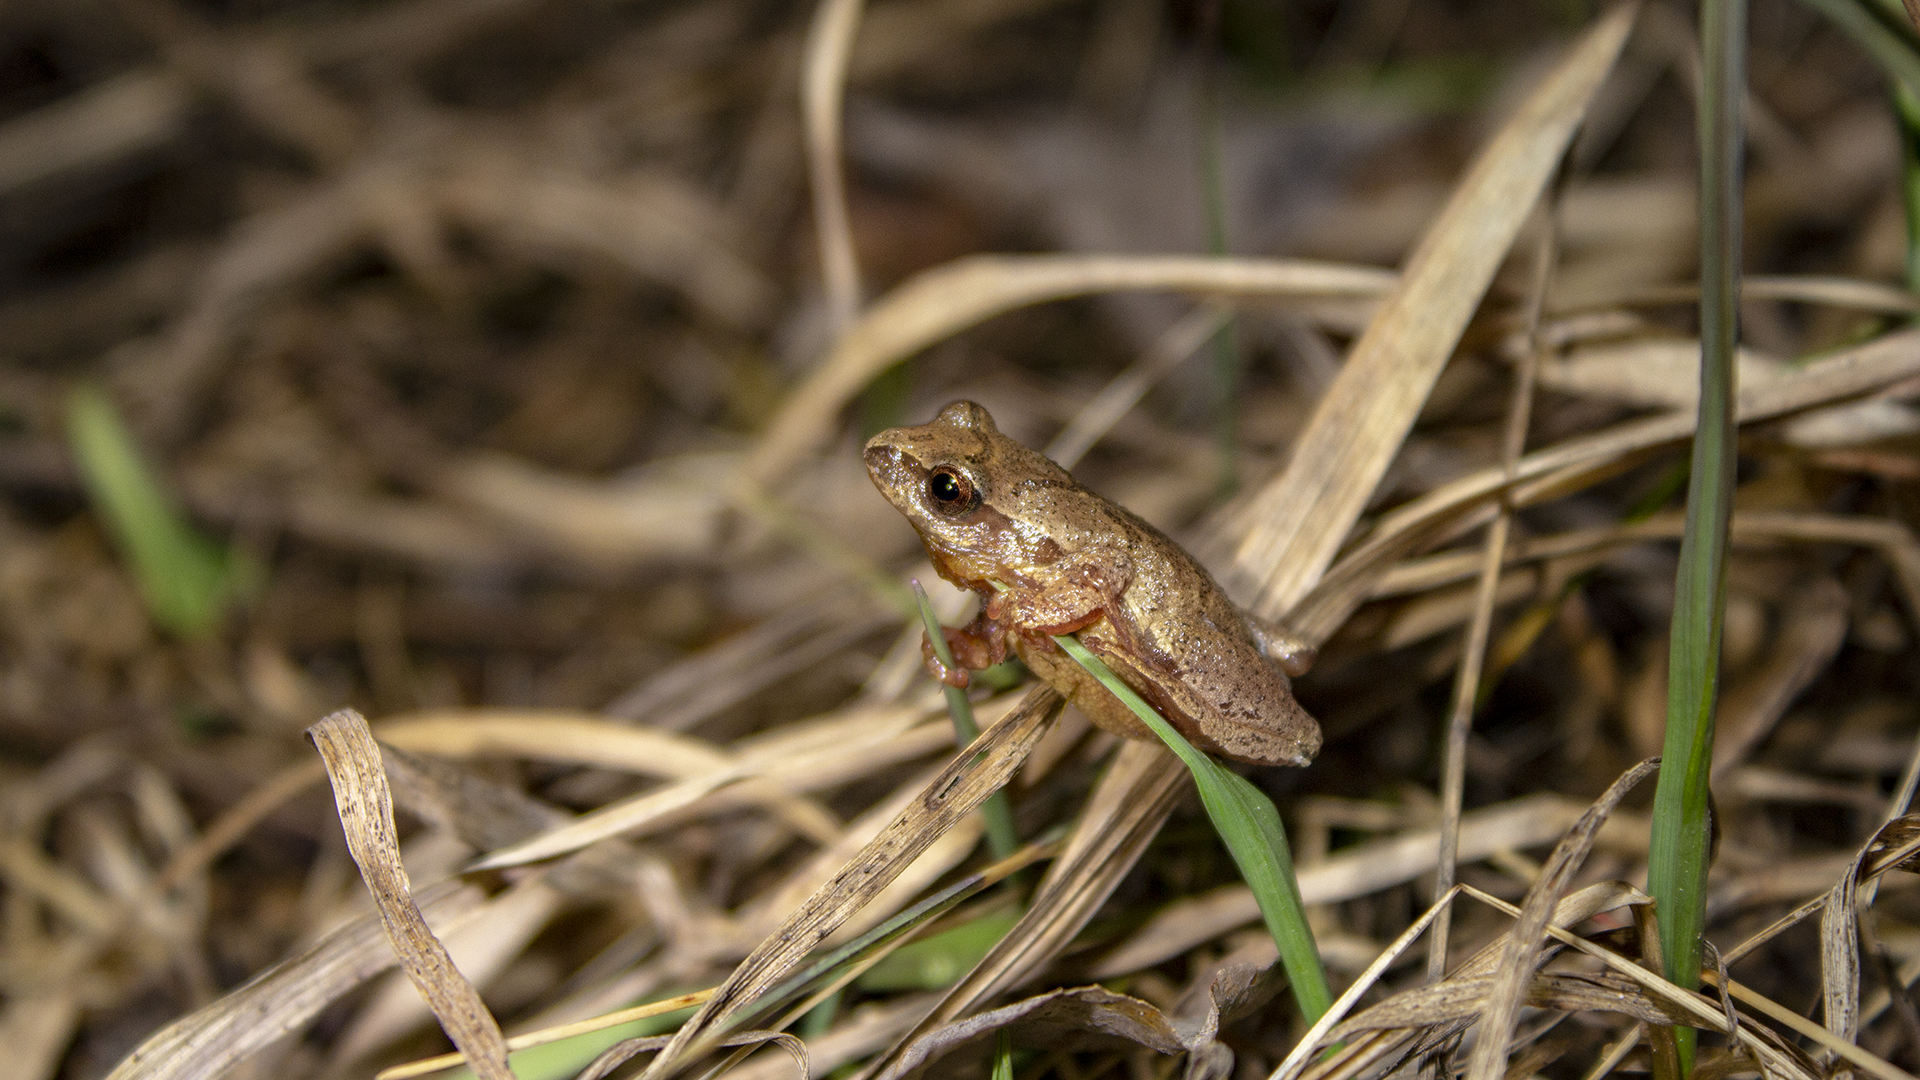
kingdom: Animalia
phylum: Chordata
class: Amphibia
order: Anura
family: Hylidae
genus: Pseudacris
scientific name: Pseudacris crucifer
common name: Spring peeper
